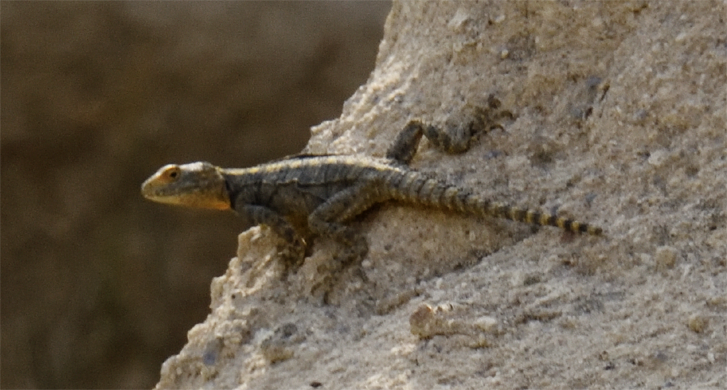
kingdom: Animalia
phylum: Chordata
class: Squamata
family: Agamidae
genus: Stellagama
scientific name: Stellagama stellio
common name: Starred agama
